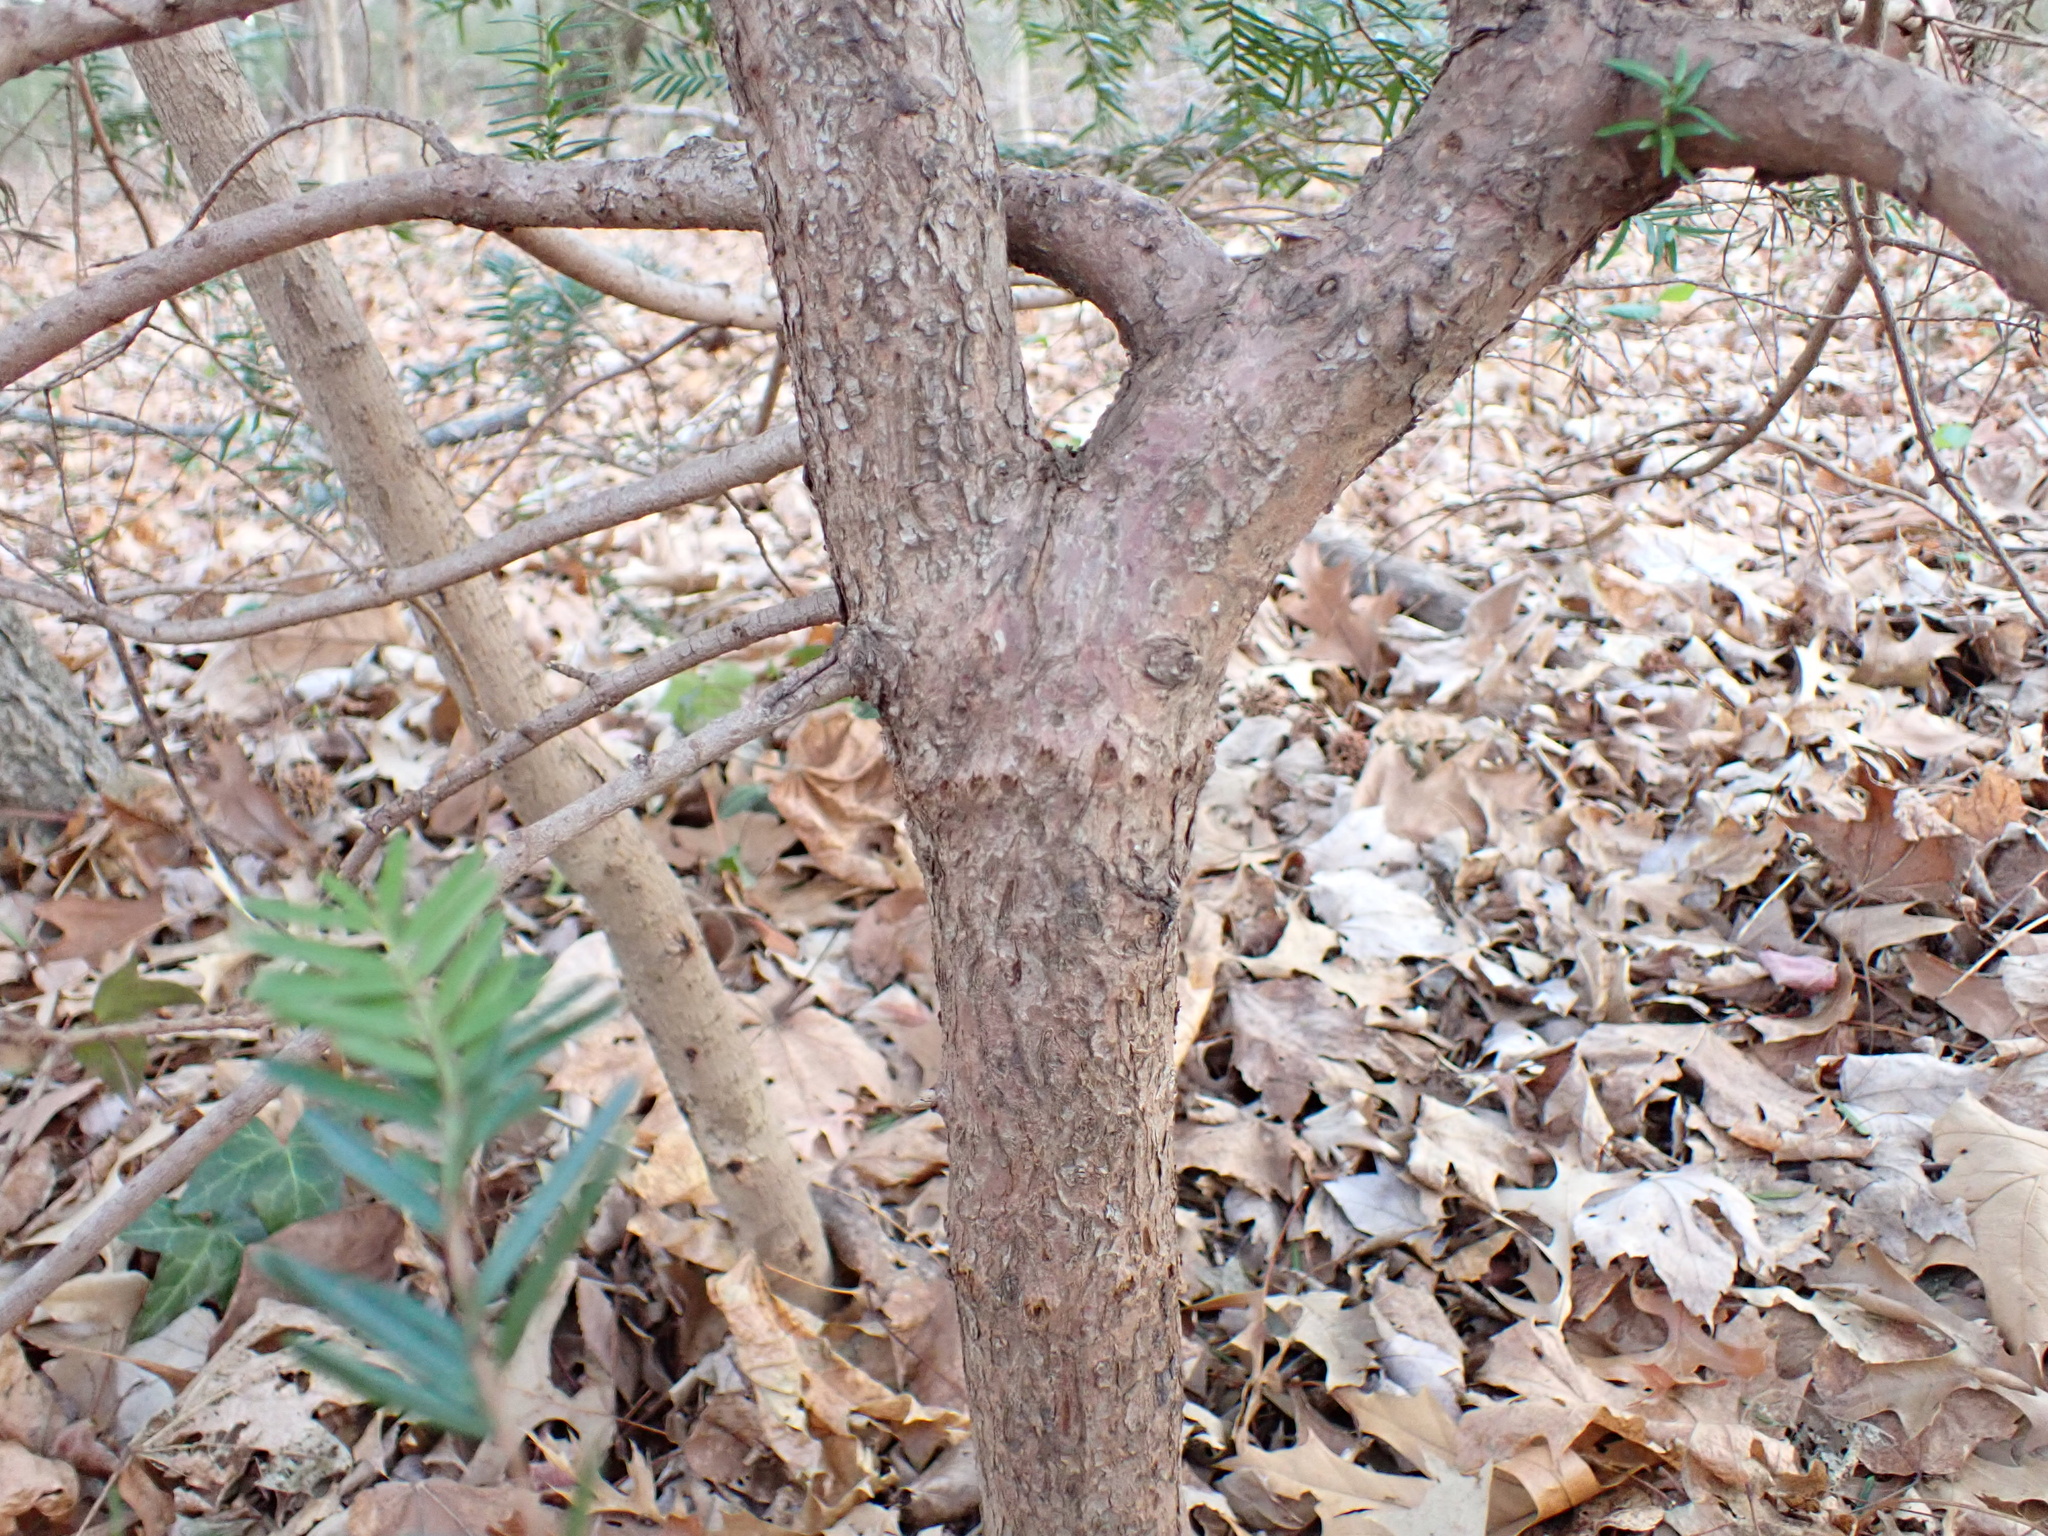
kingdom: Plantae
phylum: Tracheophyta
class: Pinopsida
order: Pinales
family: Taxaceae
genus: Taxus
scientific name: Taxus baccata
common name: Yew
